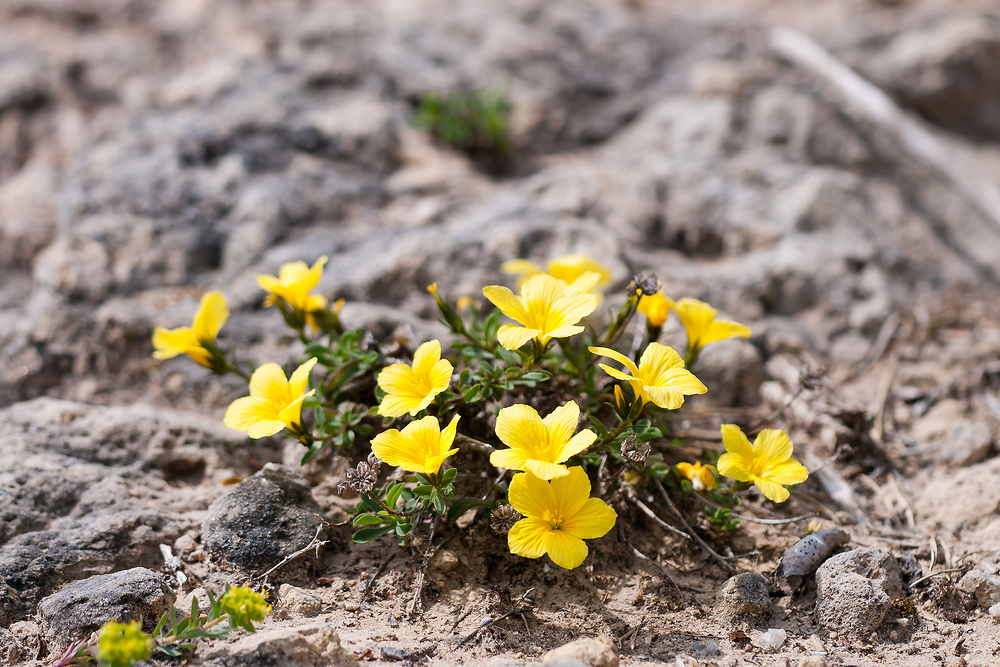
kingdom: Plantae
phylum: Tracheophyta
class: Magnoliopsida
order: Malpighiales
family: Linaceae
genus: Linum
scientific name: Linum campanulatum
